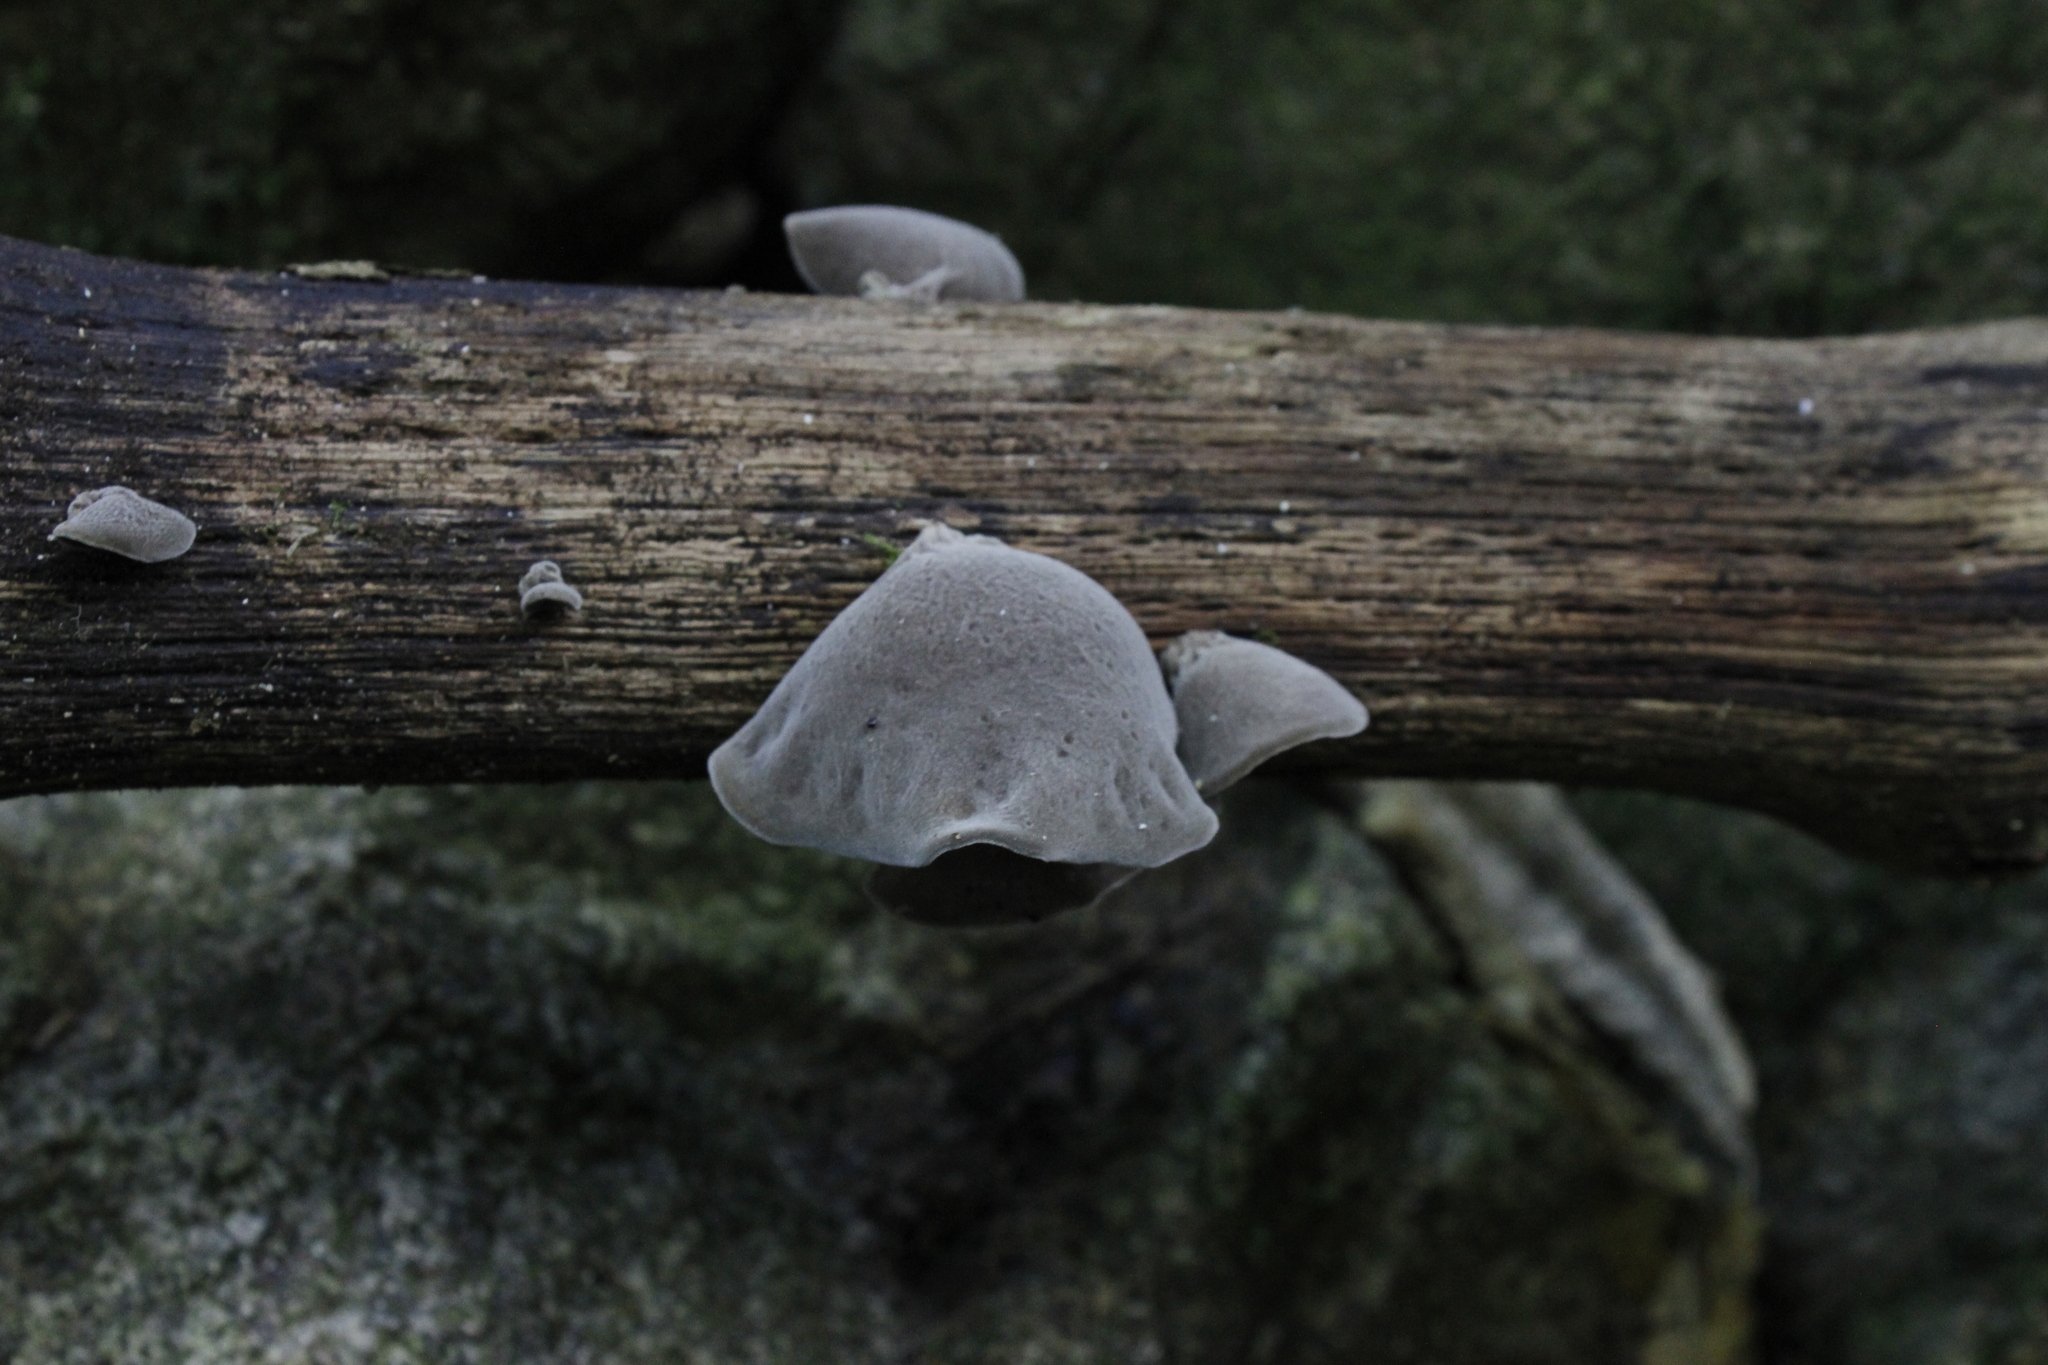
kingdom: Fungi
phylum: Basidiomycota
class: Agaricomycetes
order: Auriculariales
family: Auriculariaceae
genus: Auricularia
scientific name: Auricularia cornea
